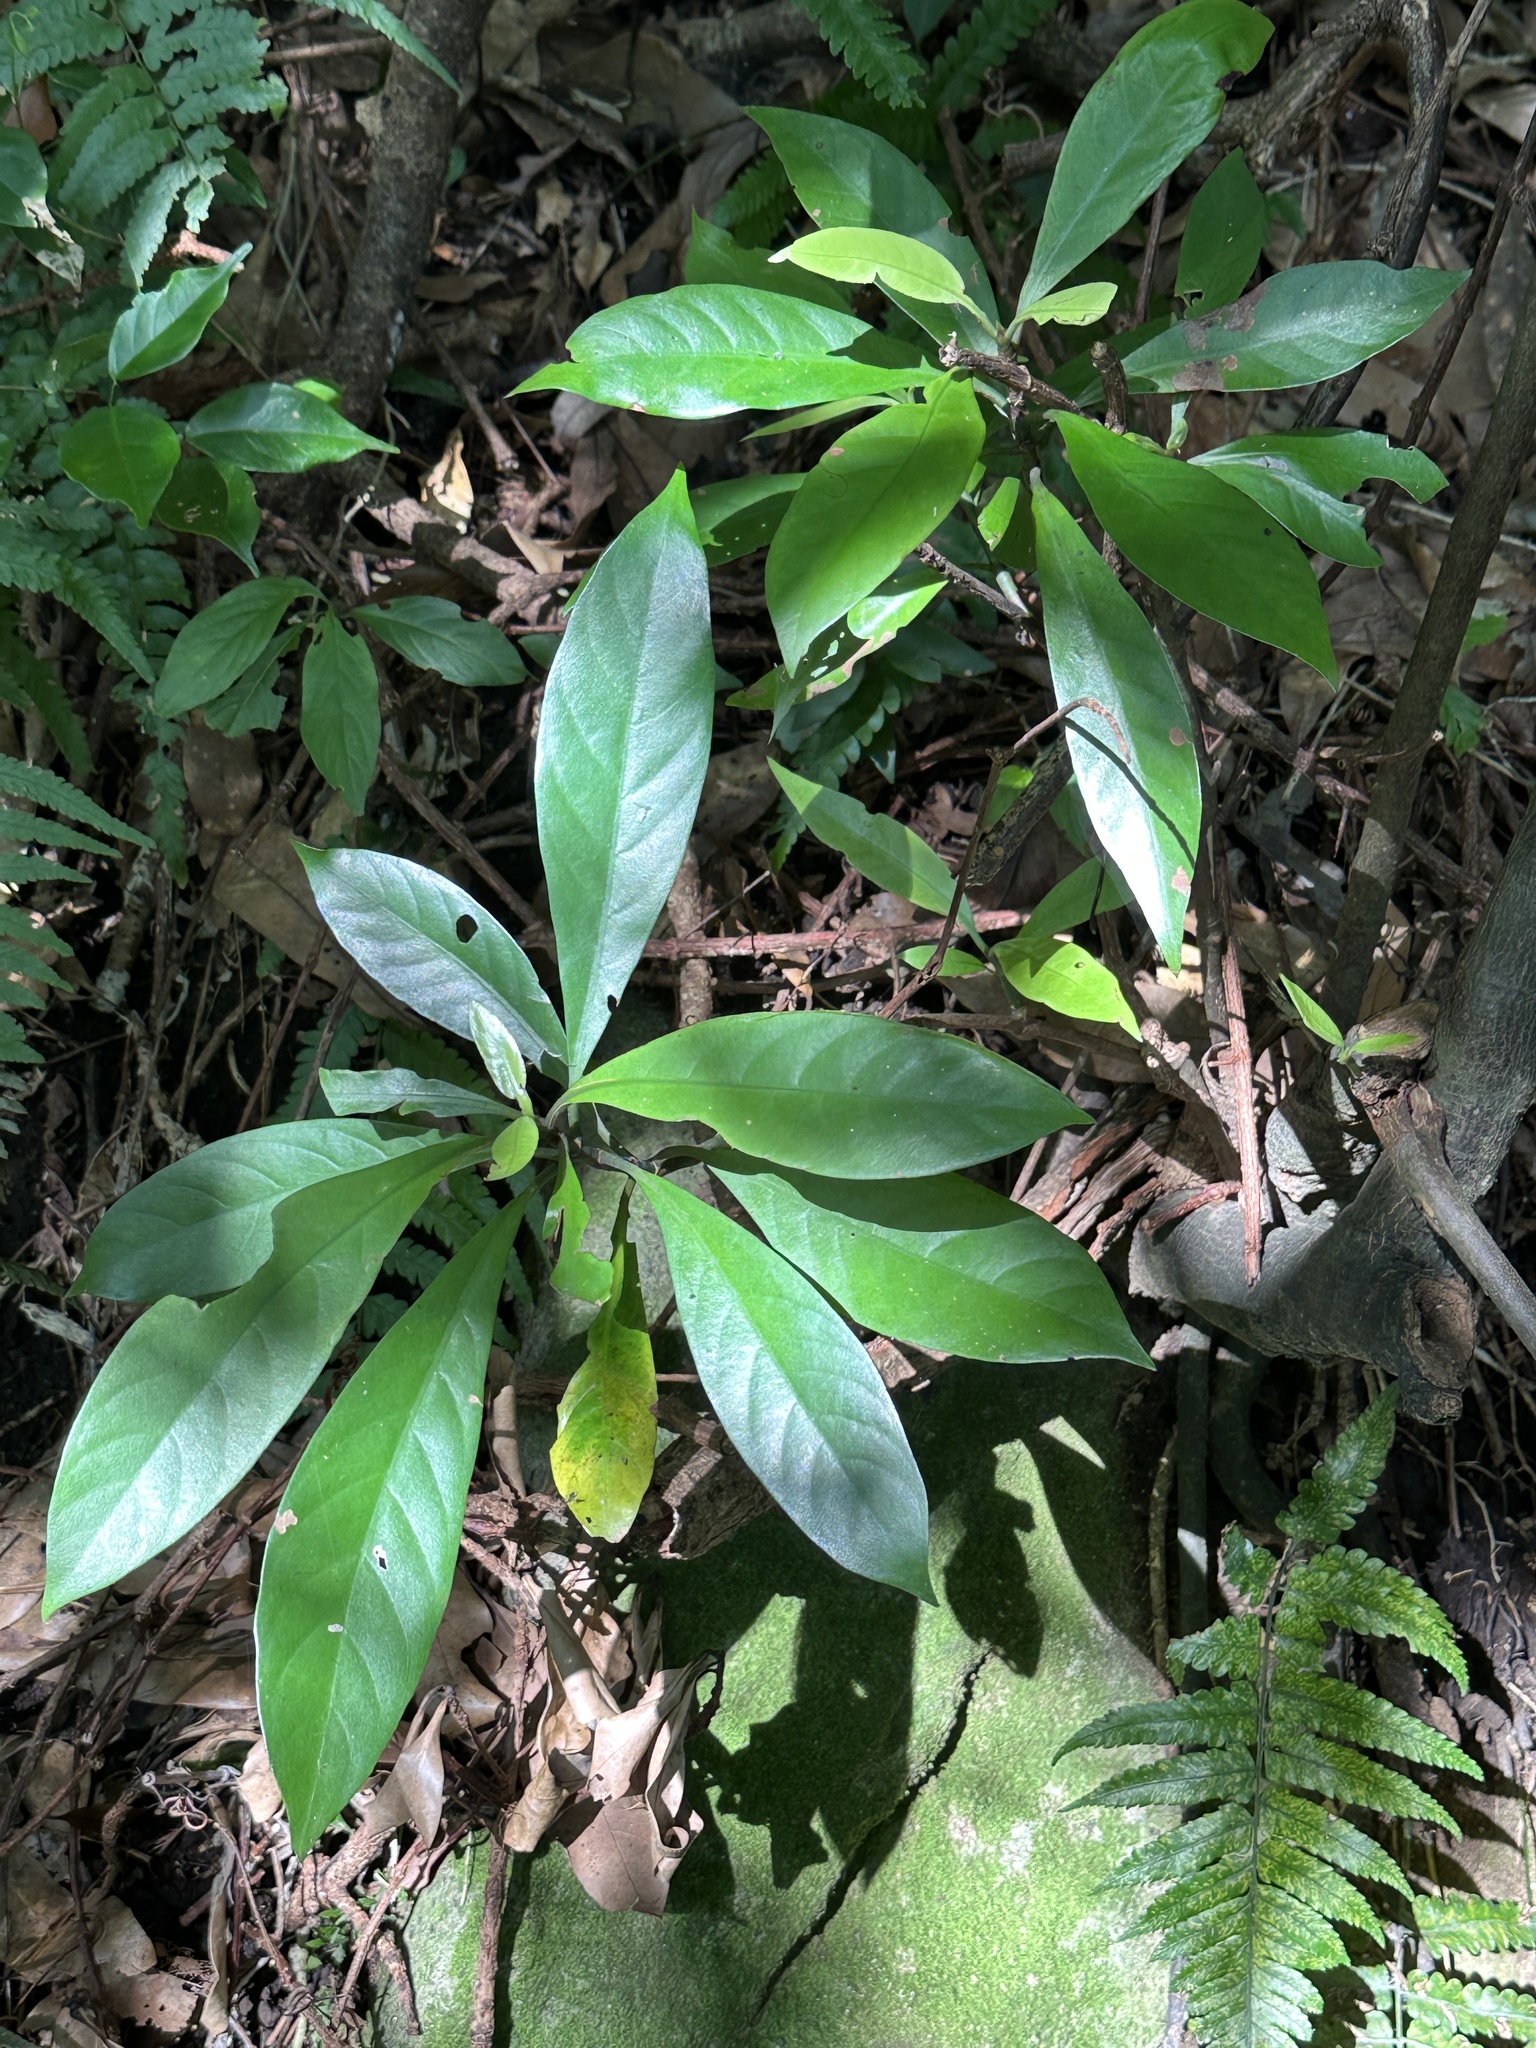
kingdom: Plantae
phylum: Tracheophyta
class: Magnoliopsida
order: Gentianales
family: Rubiaceae
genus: Psychotria
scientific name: Psychotria asiatica
